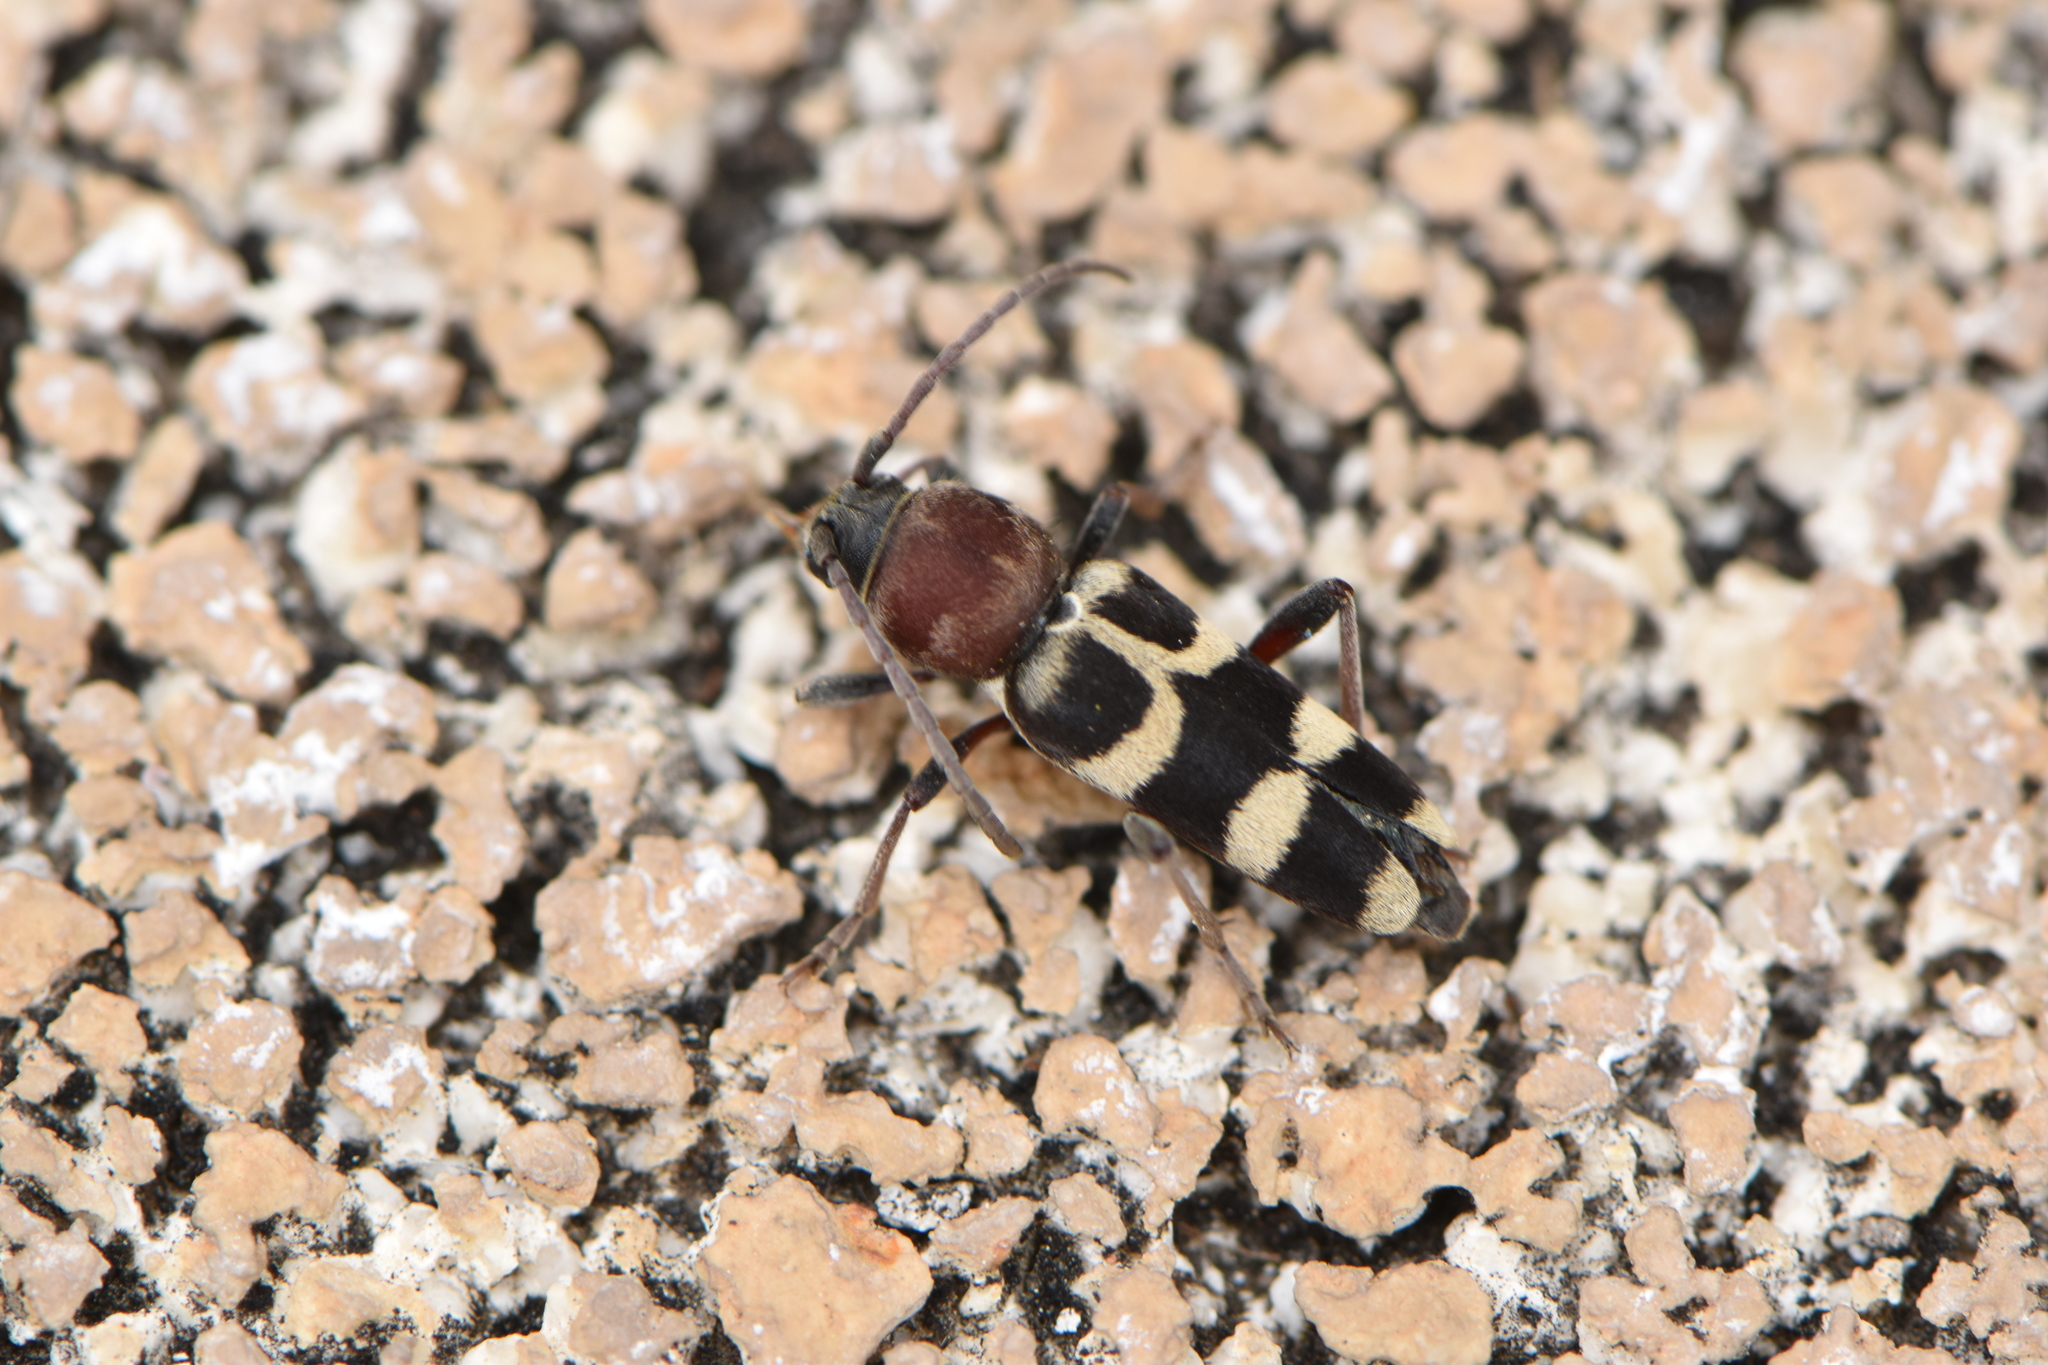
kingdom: Animalia
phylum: Arthropoda
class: Insecta
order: Coleoptera
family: Cerambycidae
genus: Chlorophorus
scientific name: Chlorophorus trifasciatus
